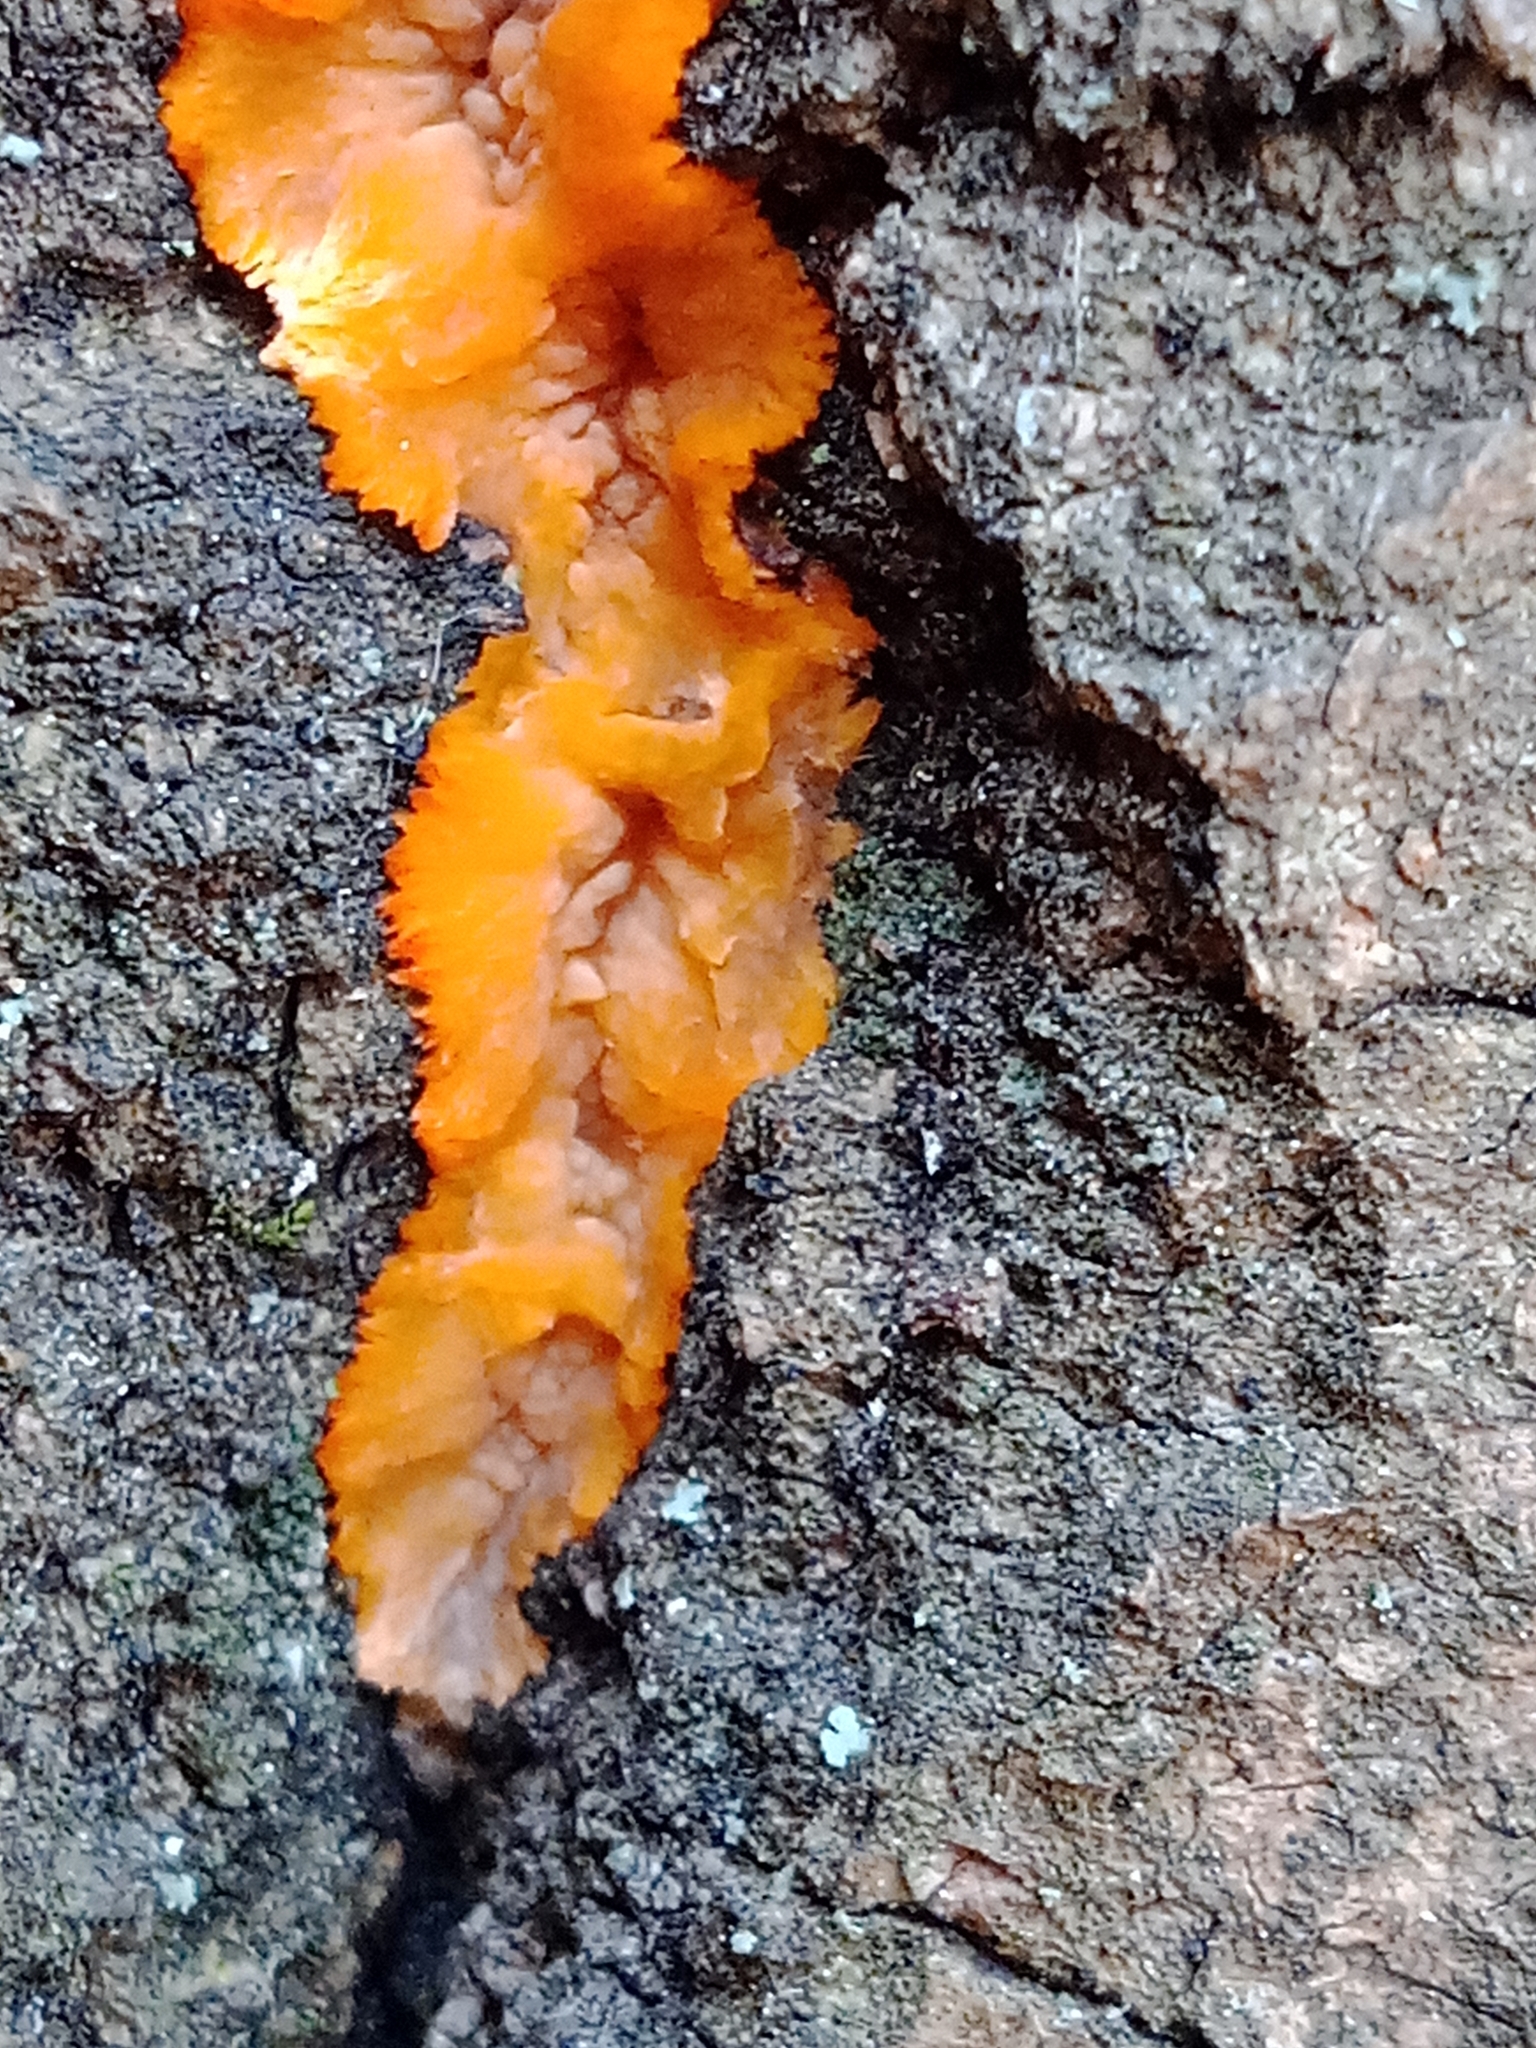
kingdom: Fungi
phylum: Basidiomycota
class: Agaricomycetes
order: Polyporales
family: Meruliaceae
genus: Phlebia
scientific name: Phlebia radiata
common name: Wrinkled crust
